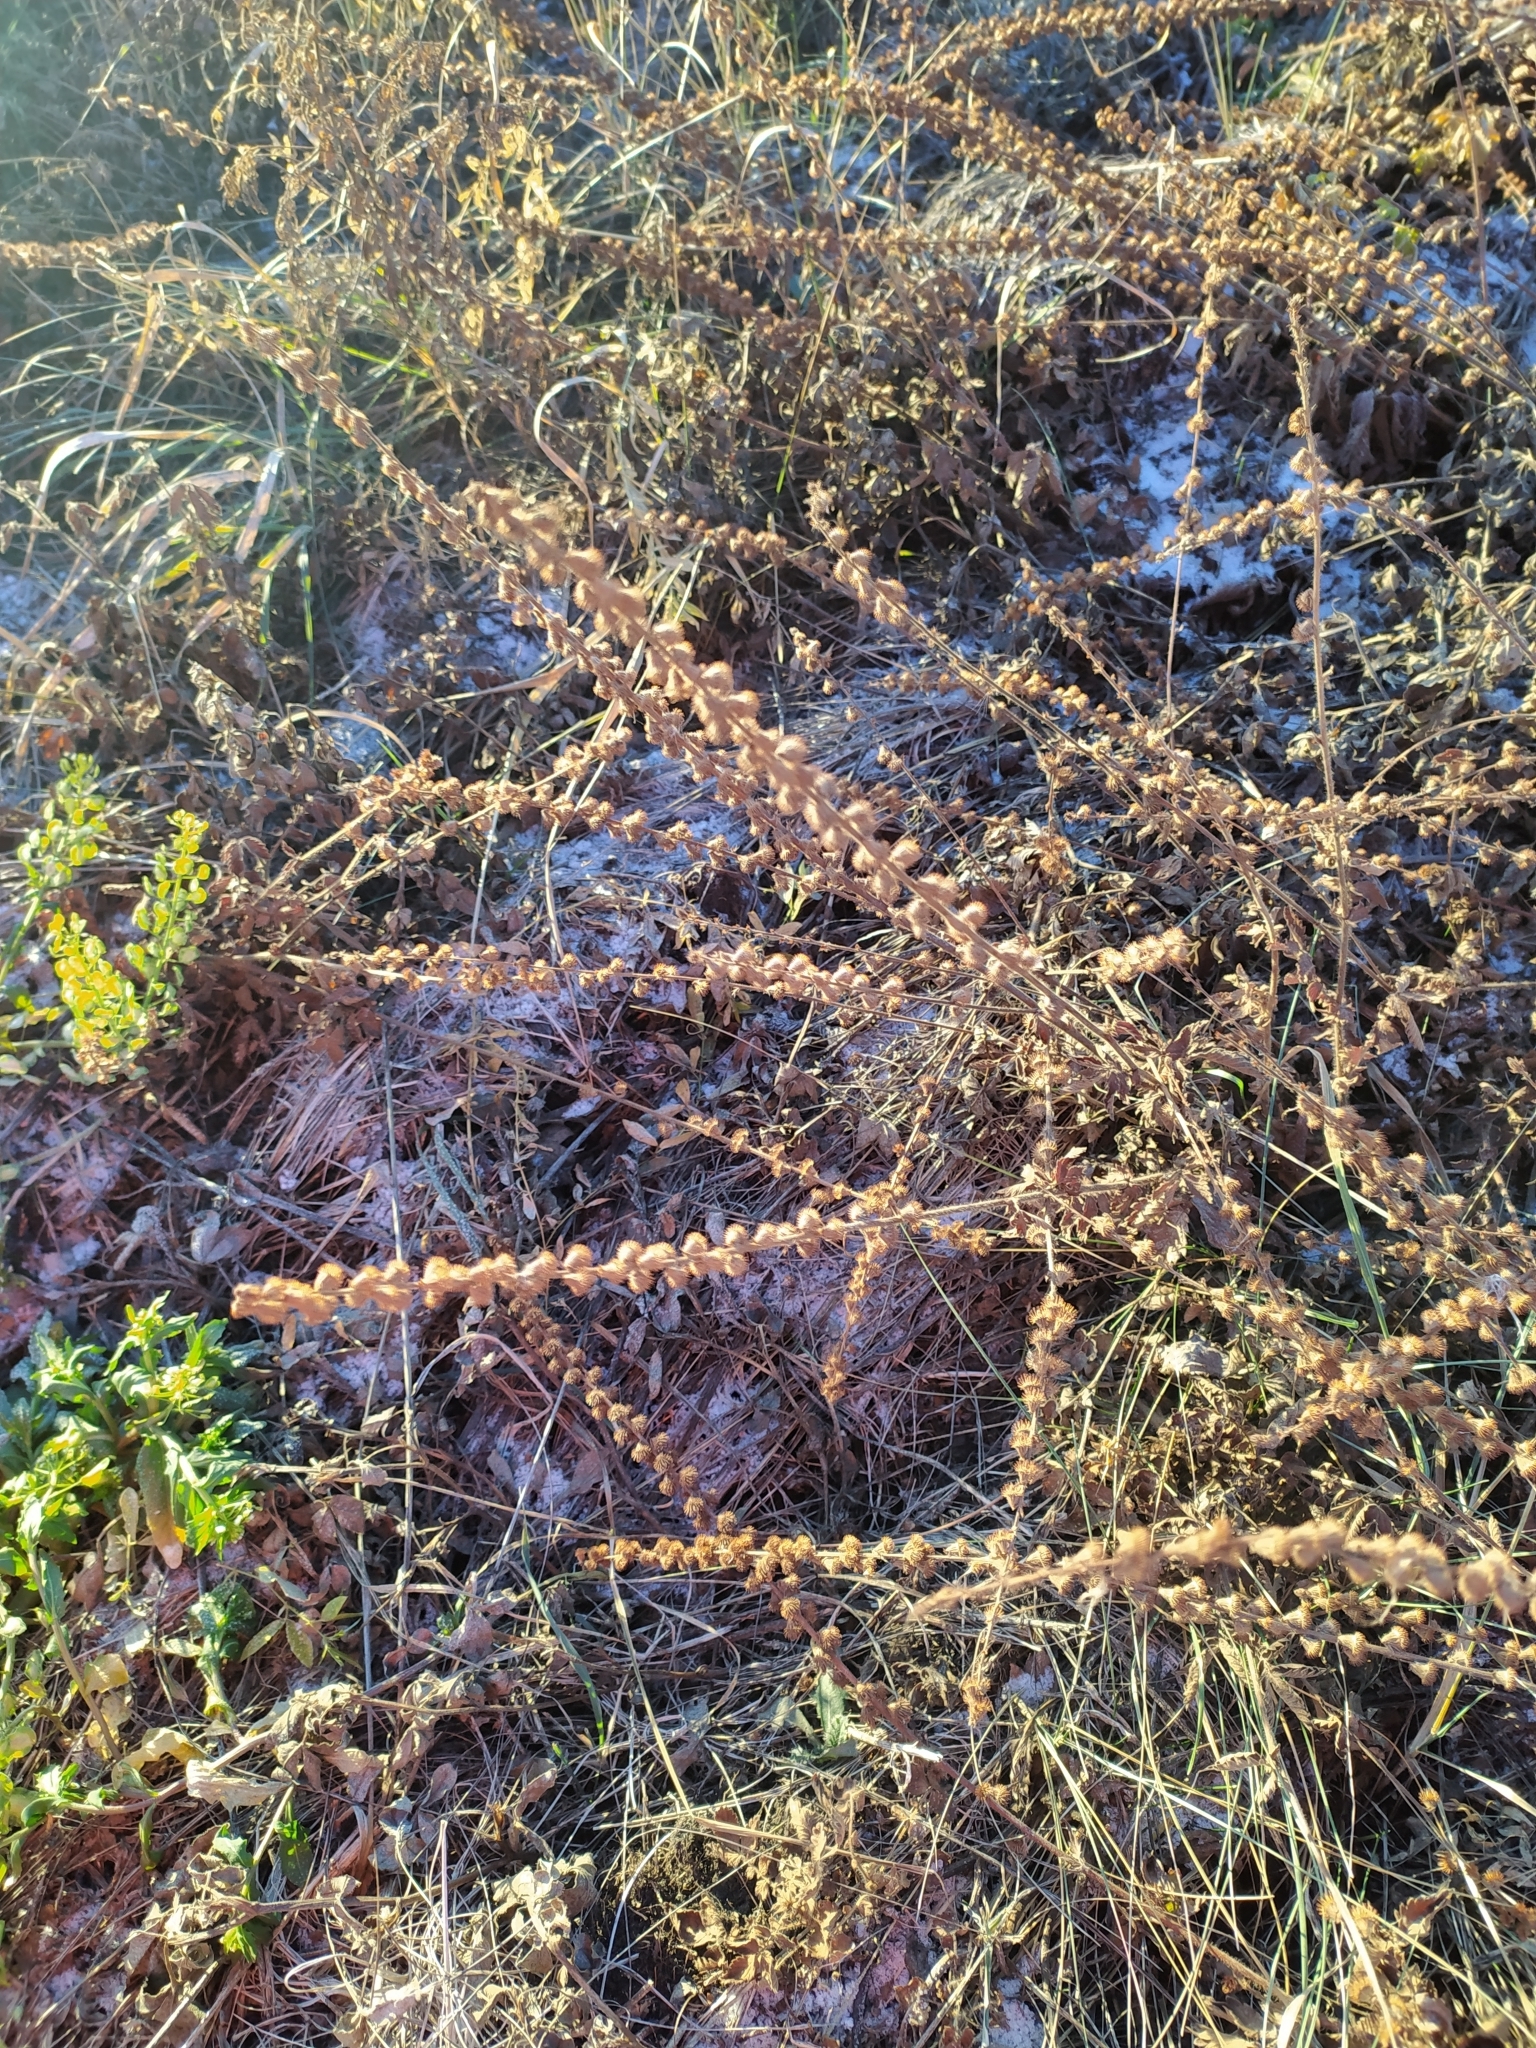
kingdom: Plantae
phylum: Tracheophyta
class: Magnoliopsida
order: Rosales
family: Rosaceae
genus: Agrimonia
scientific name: Agrimonia eupatoria
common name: Agrimony
